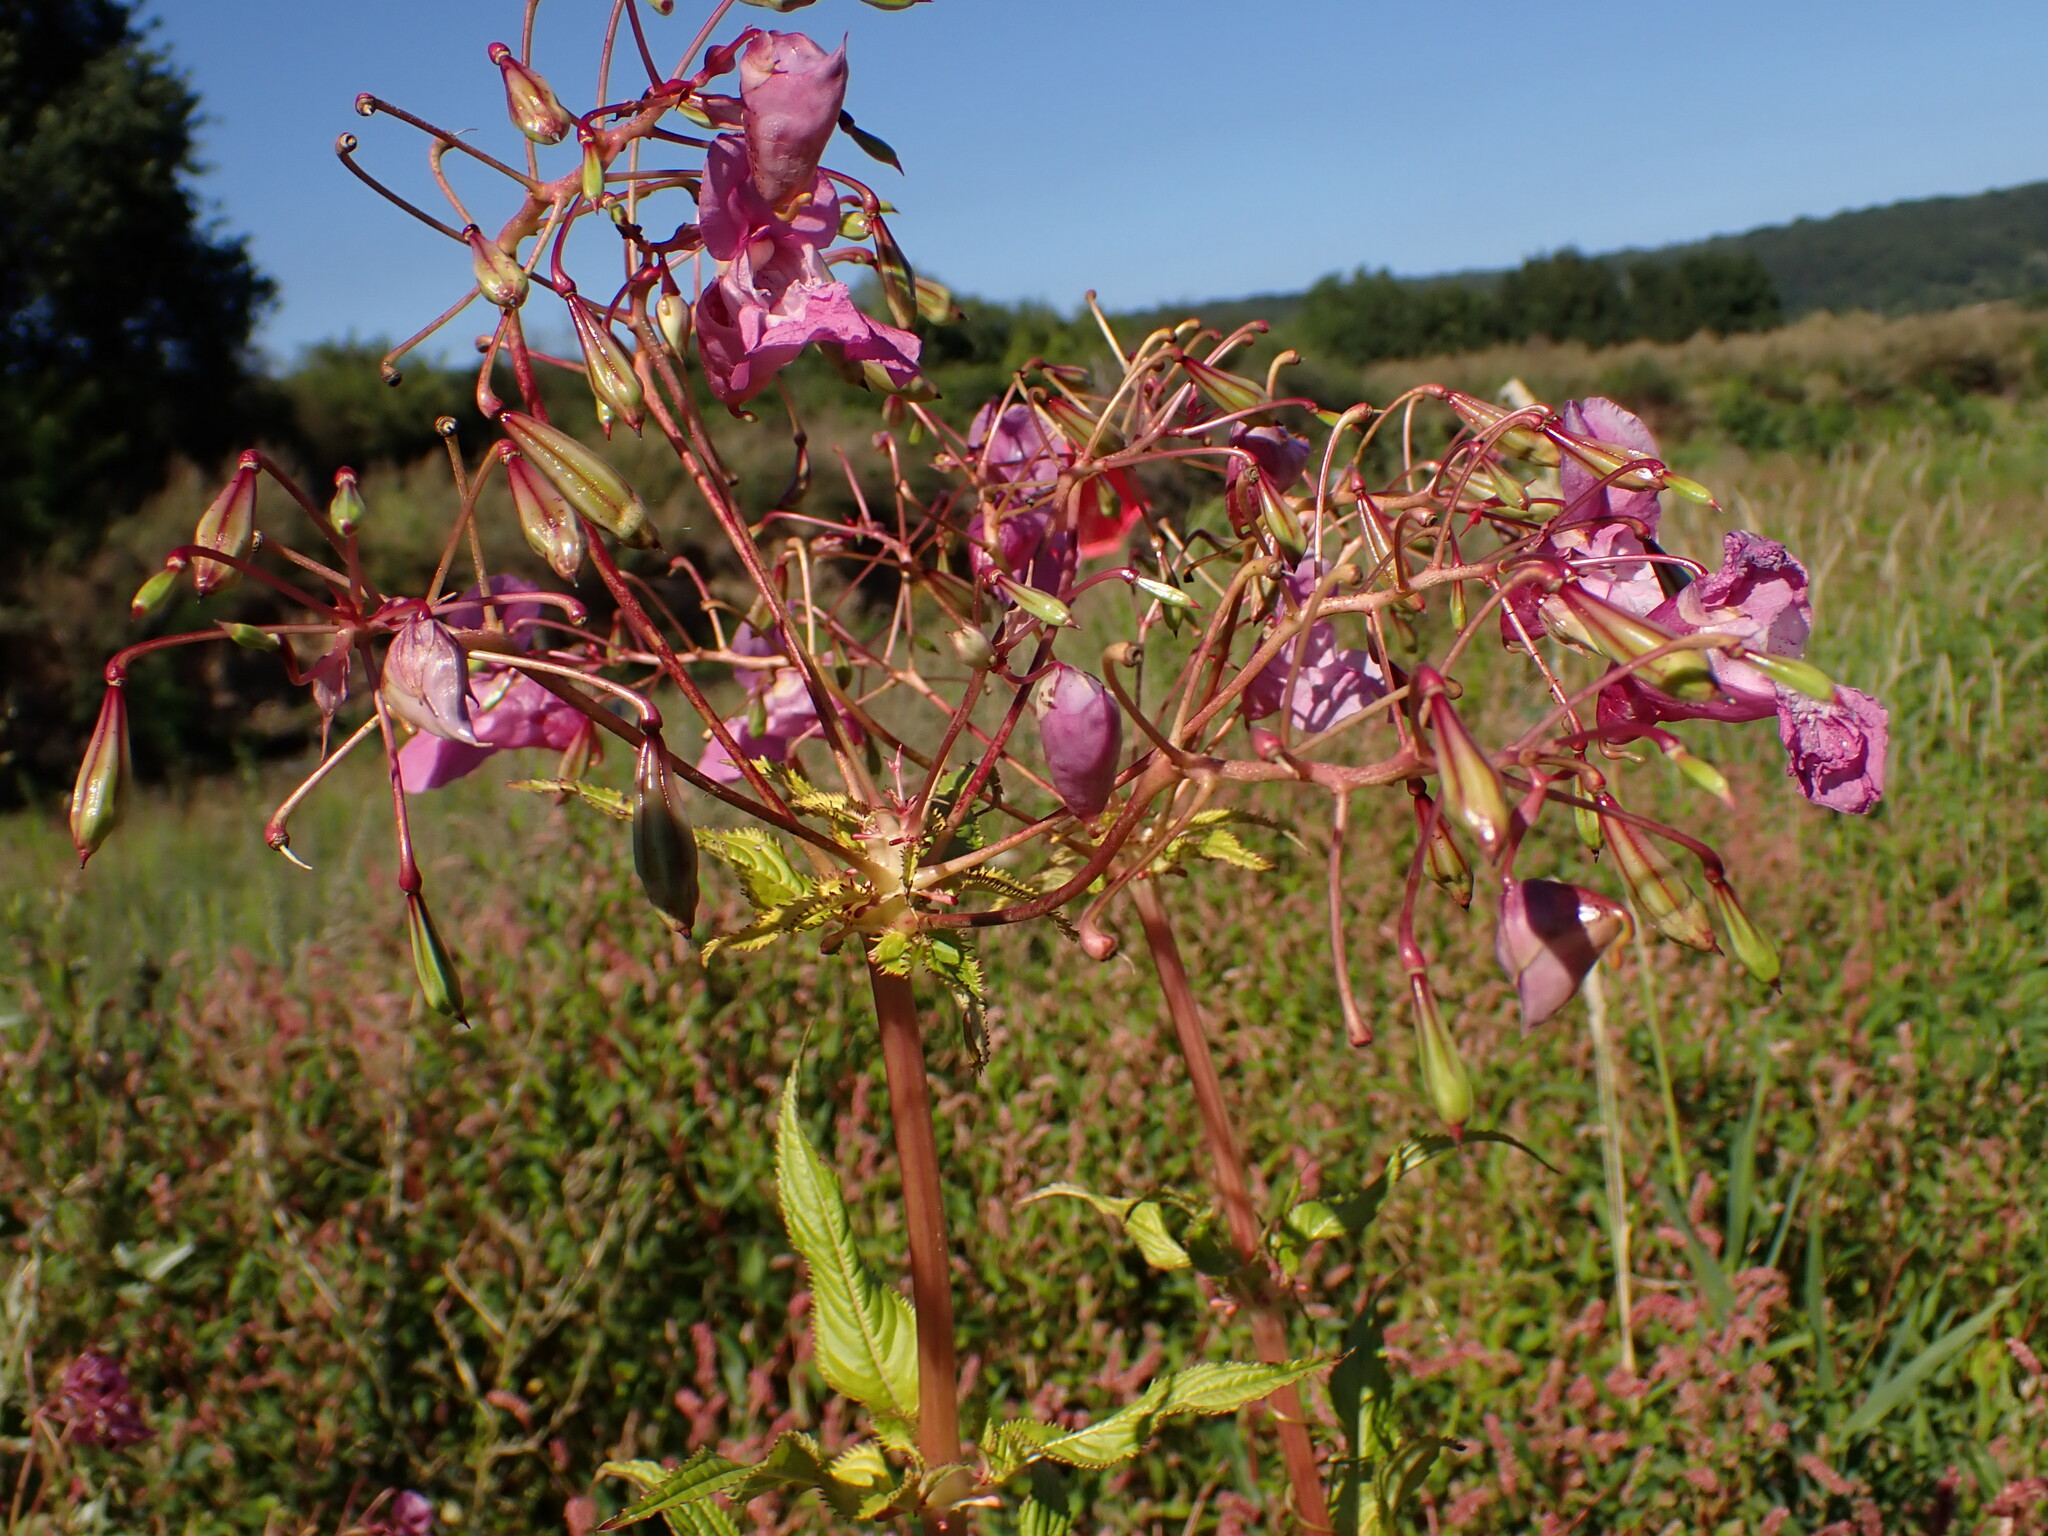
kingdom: Plantae
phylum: Tracheophyta
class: Magnoliopsida
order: Ericales
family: Balsaminaceae
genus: Impatiens
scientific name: Impatiens glandulifera
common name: Himalayan balsam
